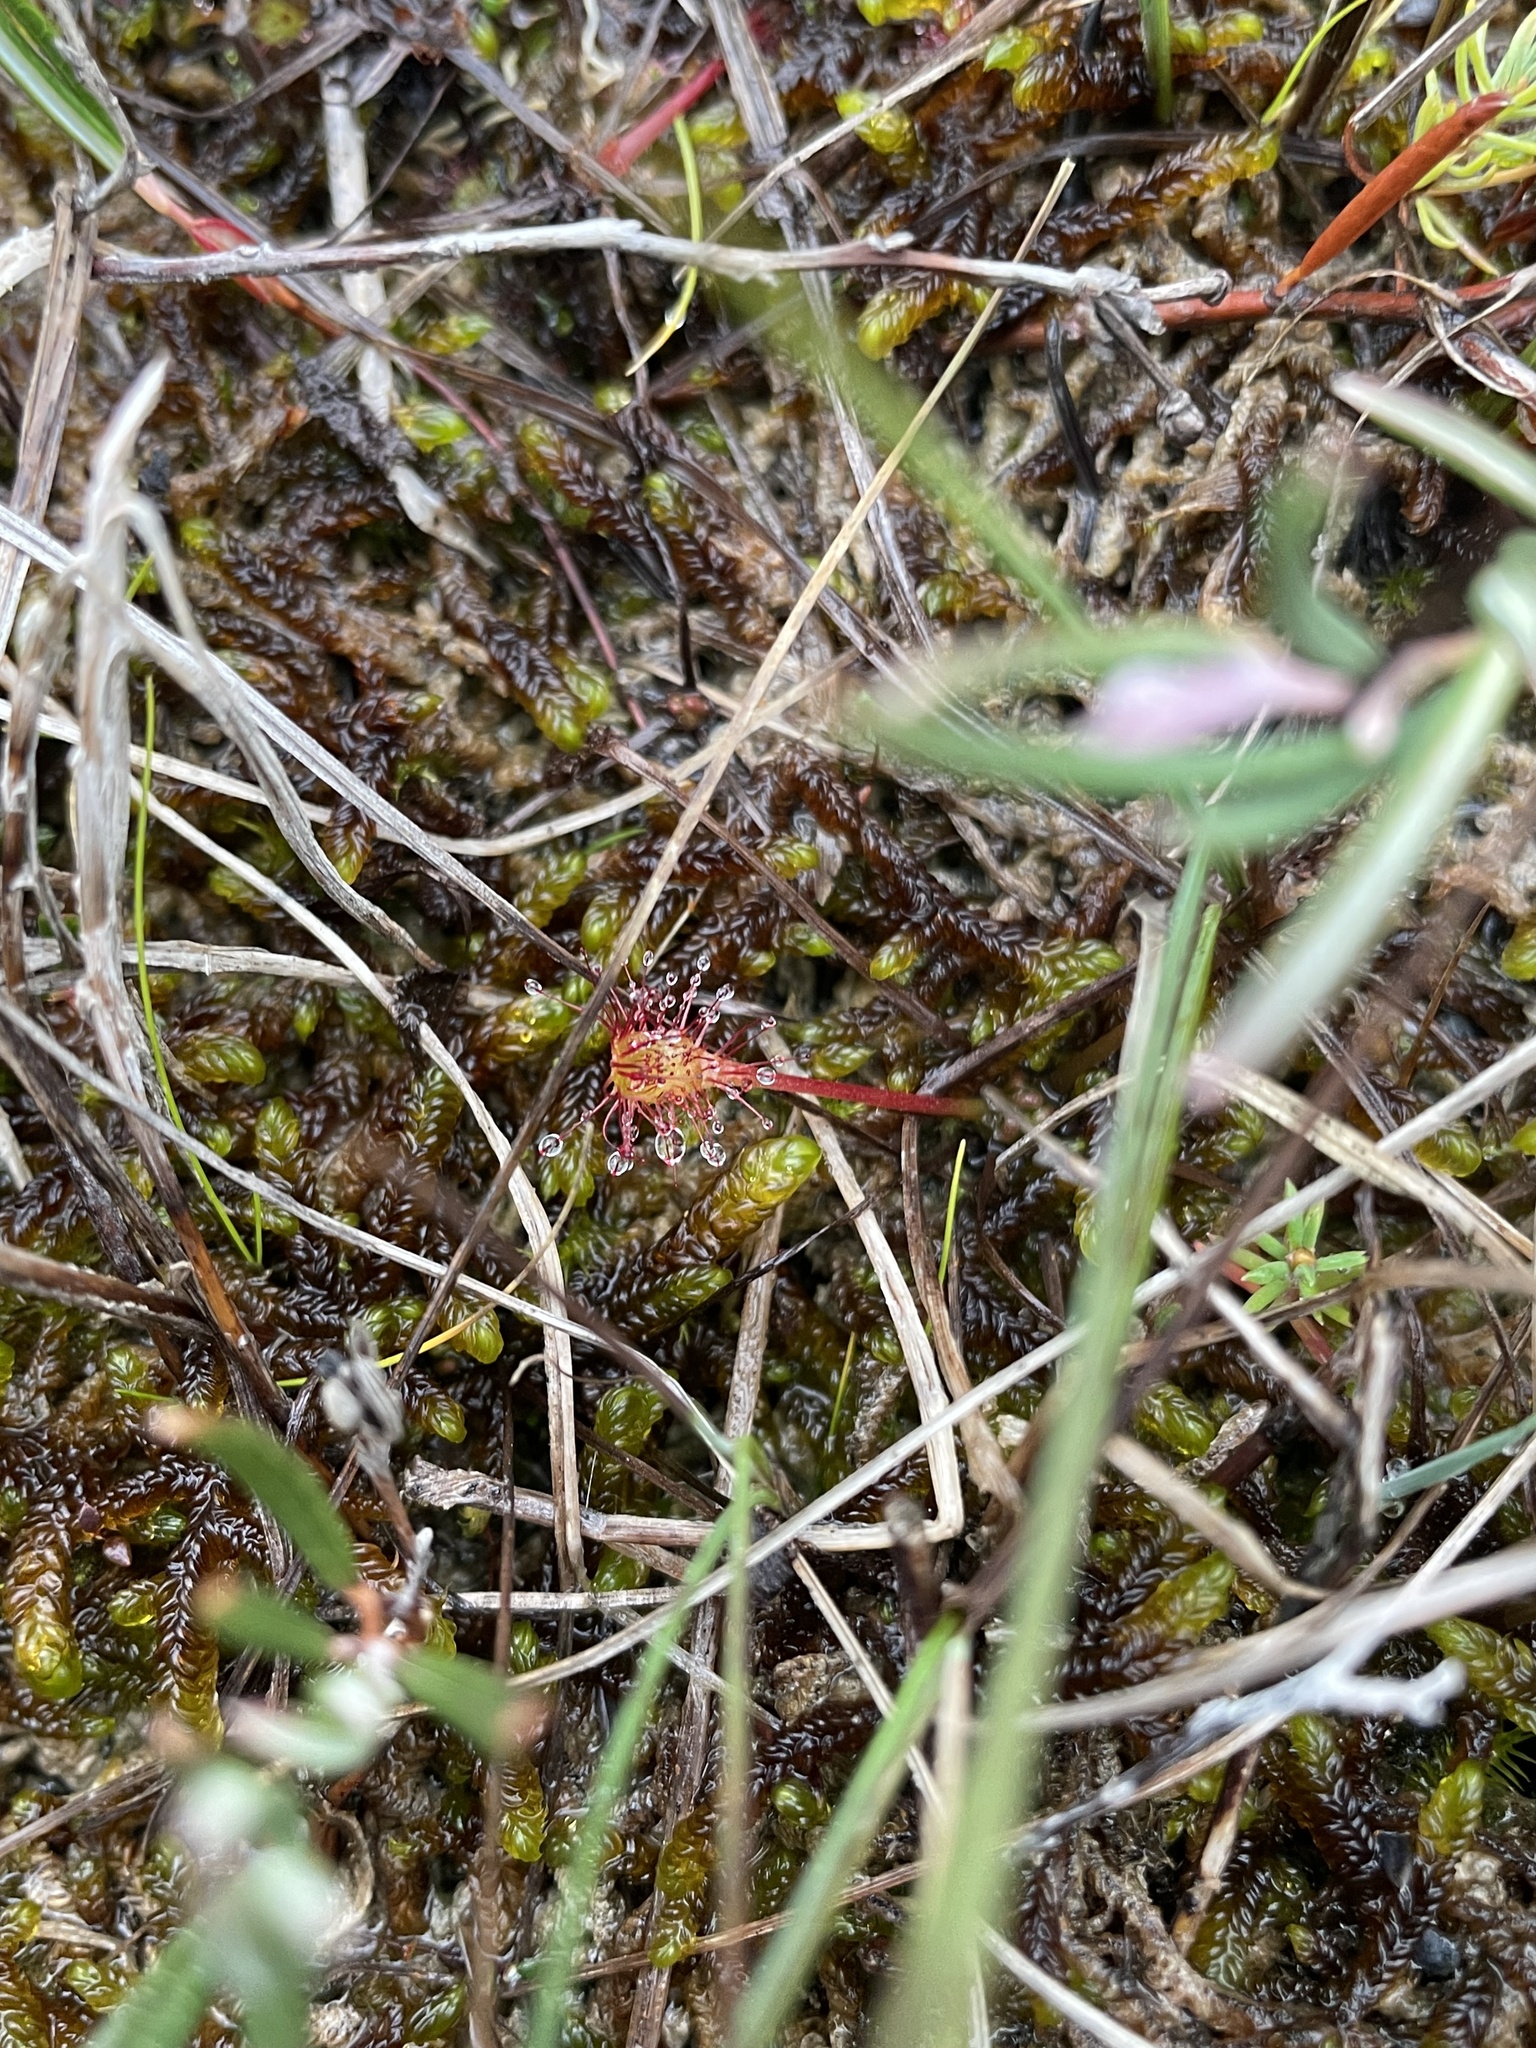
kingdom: Plantae
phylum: Tracheophyta
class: Magnoliopsida
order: Caryophyllales
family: Droseraceae
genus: Drosera
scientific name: Drosera anglica
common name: Great sundew
